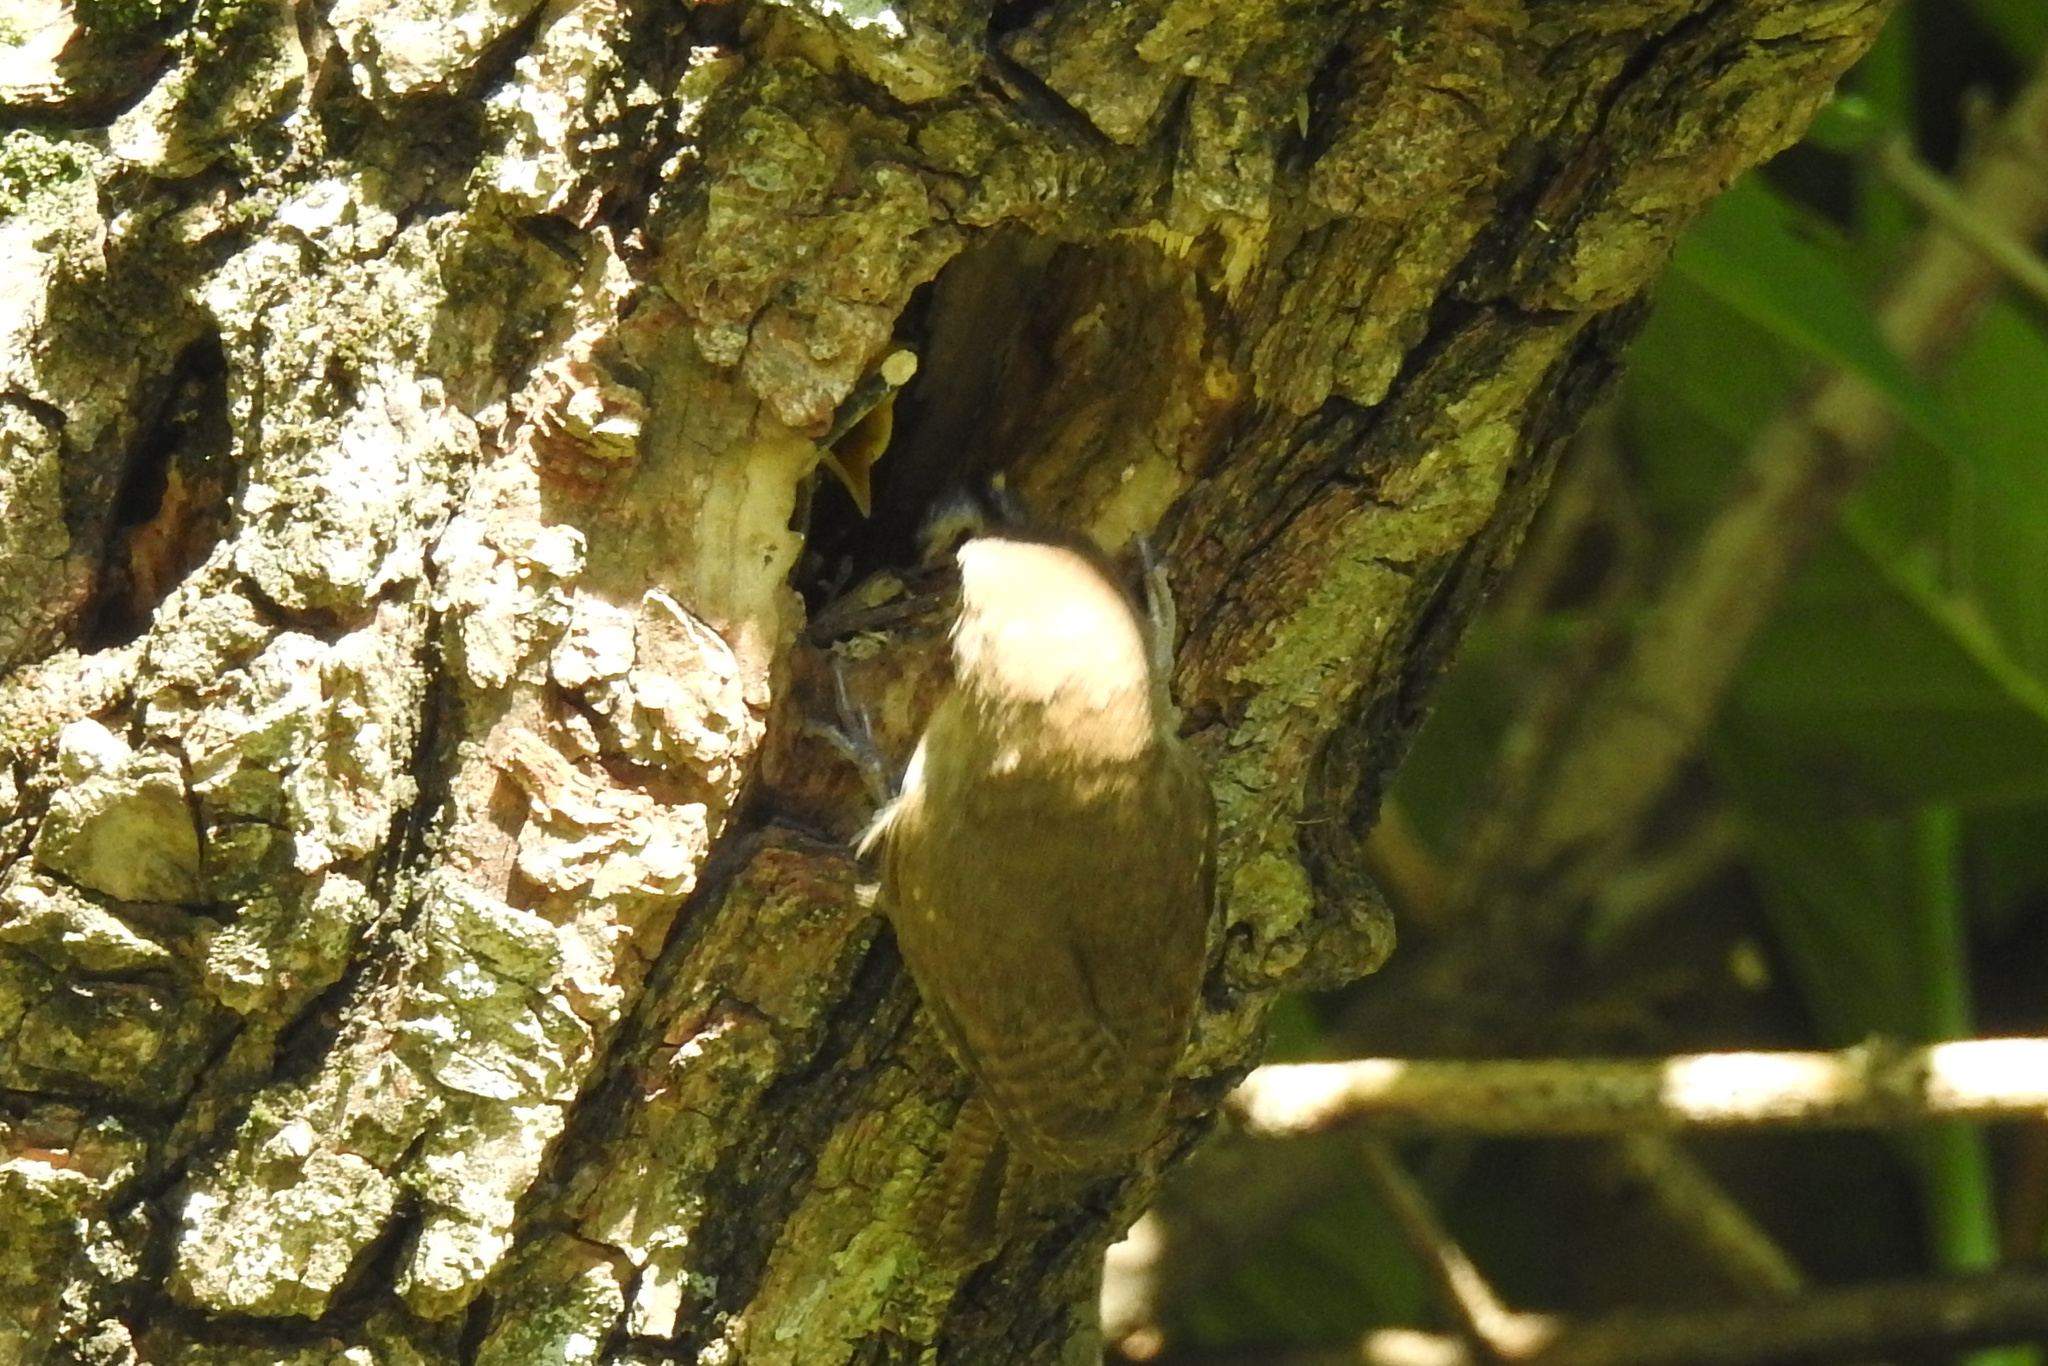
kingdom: Animalia
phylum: Chordata
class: Aves
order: Passeriformes
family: Troglodytidae
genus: Troglodytes
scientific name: Troglodytes aedon
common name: House wren
